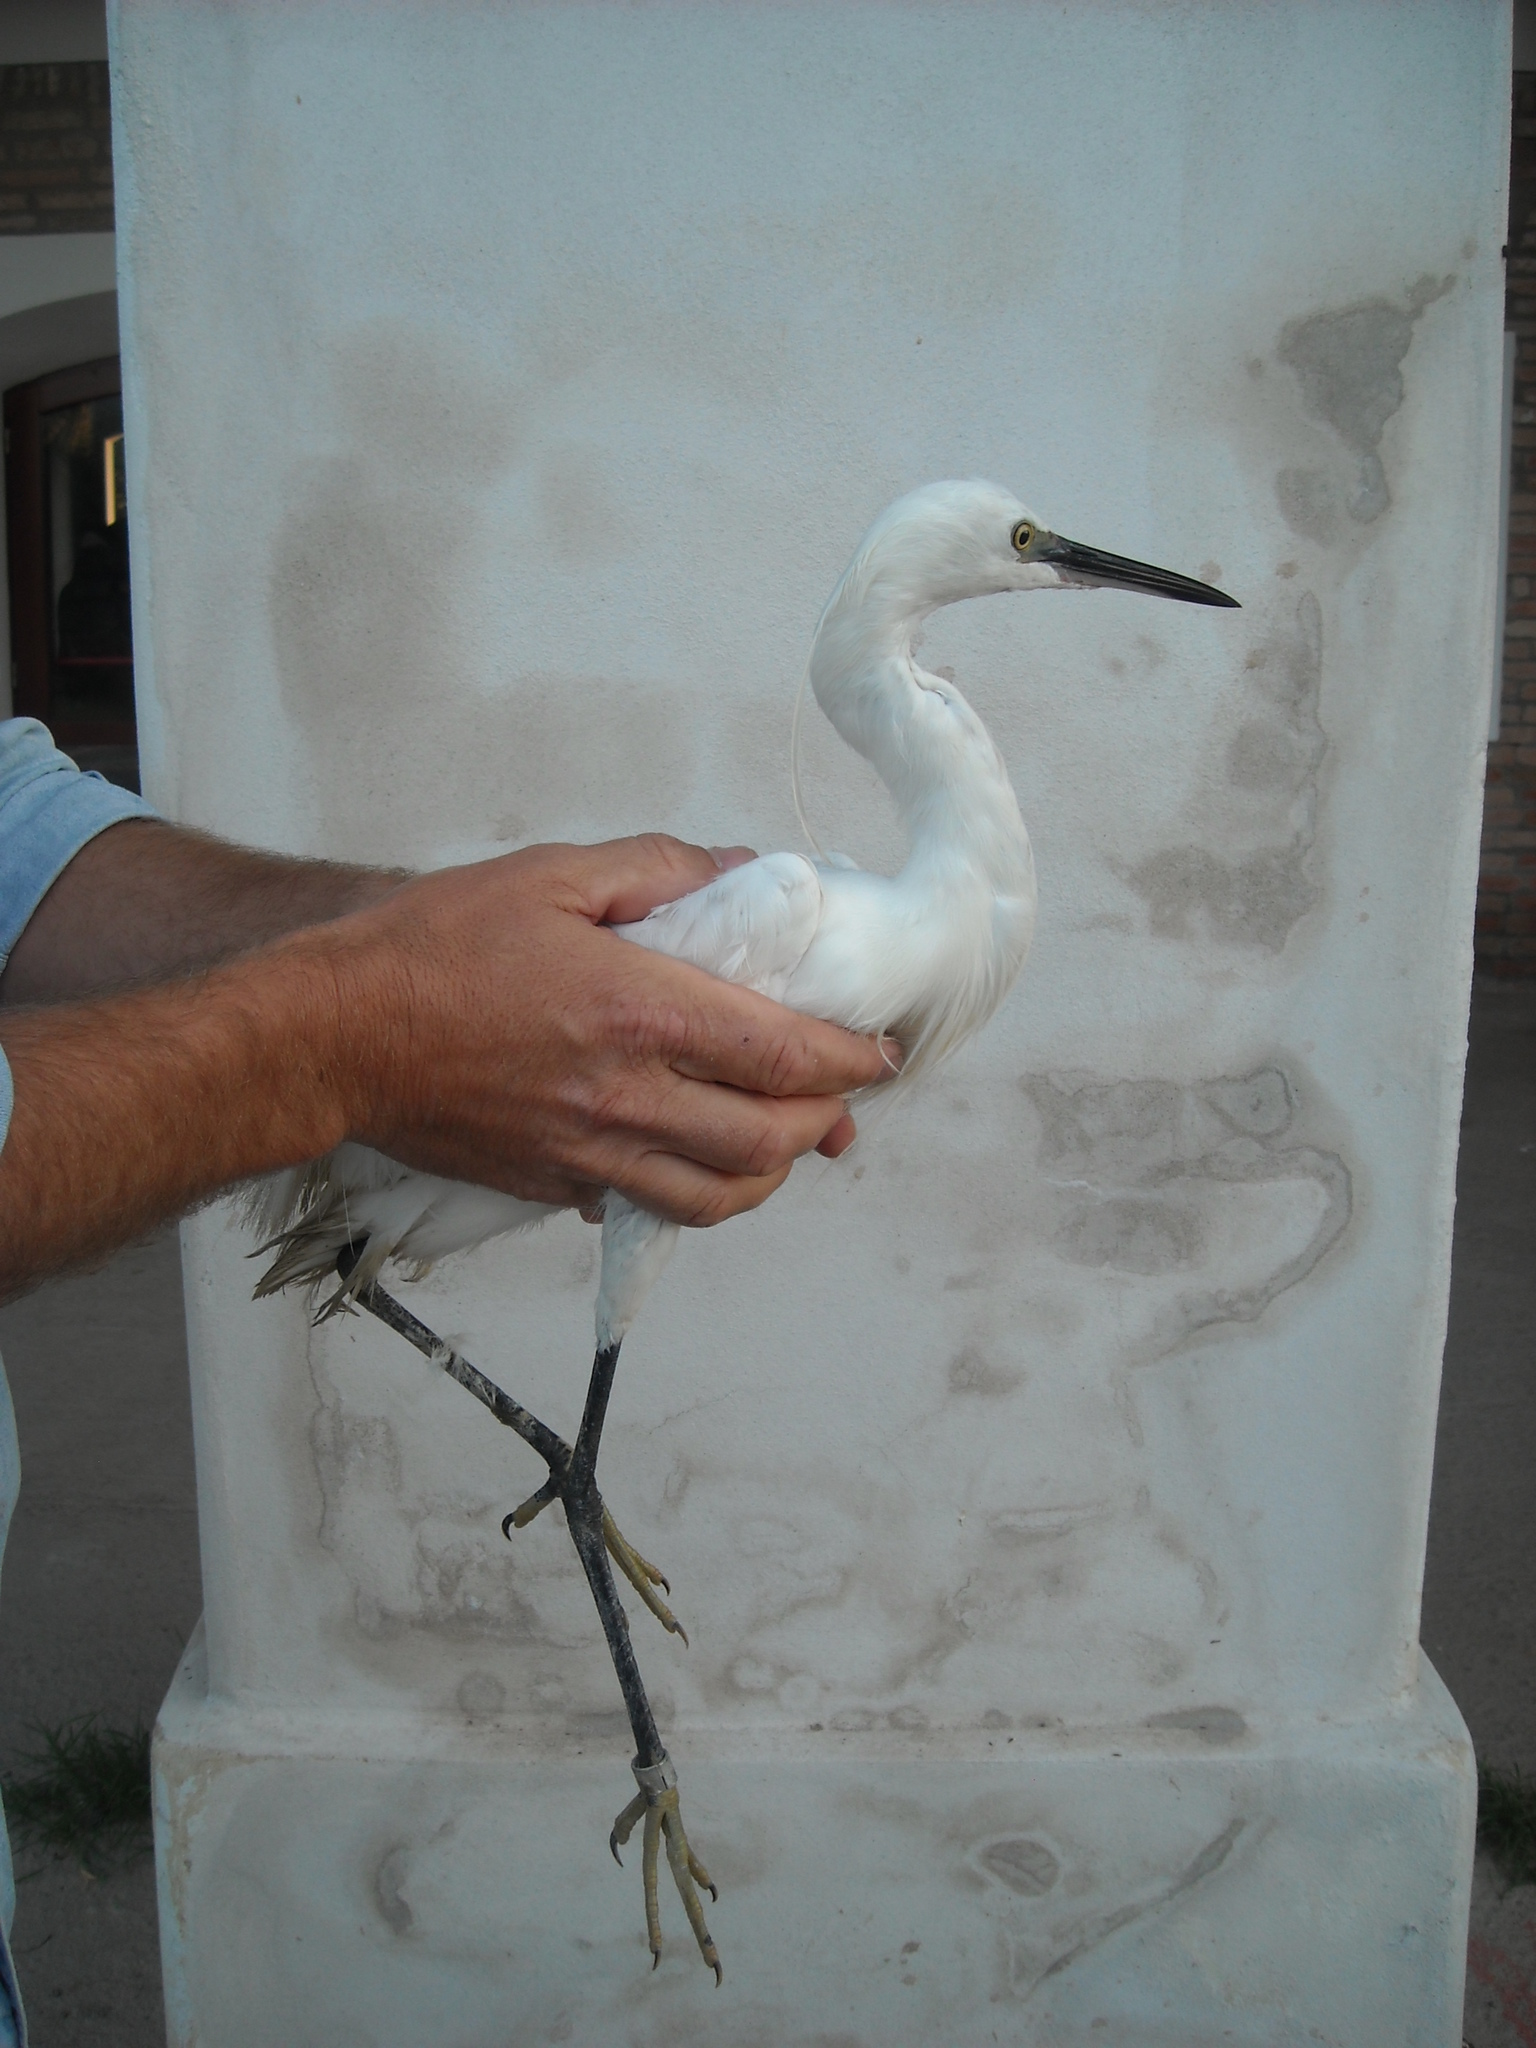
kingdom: Animalia
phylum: Chordata
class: Aves
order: Pelecaniformes
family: Ardeidae
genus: Egretta
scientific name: Egretta garzetta
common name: Little egret
